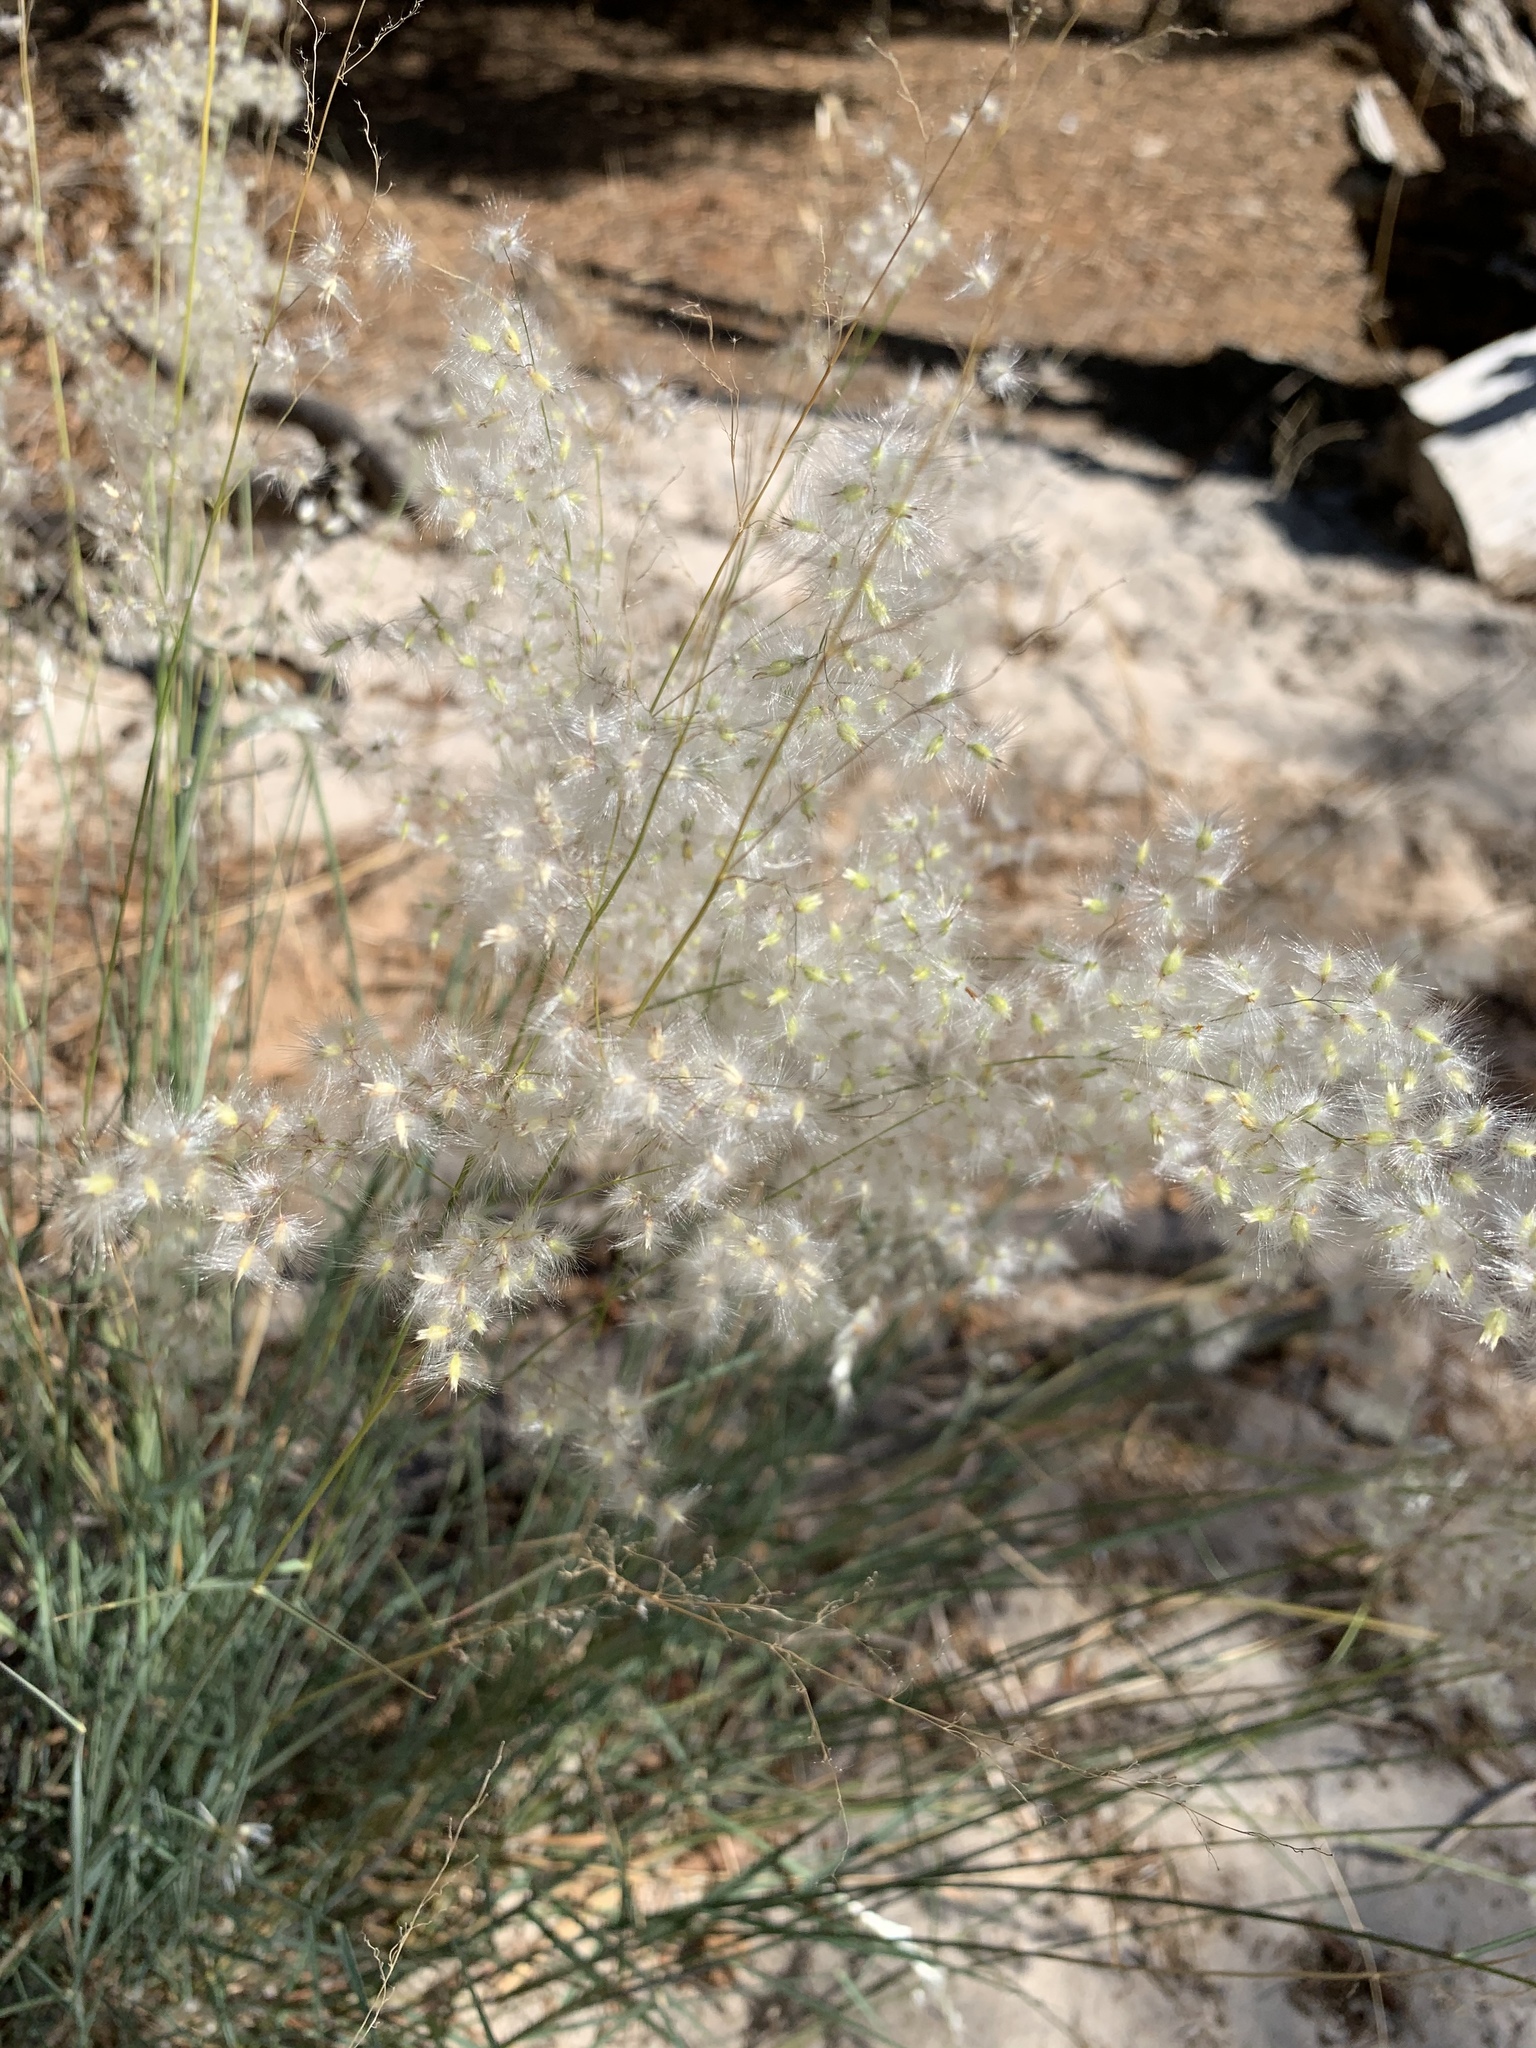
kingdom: Plantae
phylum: Tracheophyta
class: Liliopsida
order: Poales
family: Poaceae
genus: Melinis
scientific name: Melinis repens
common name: Rose natal grass
